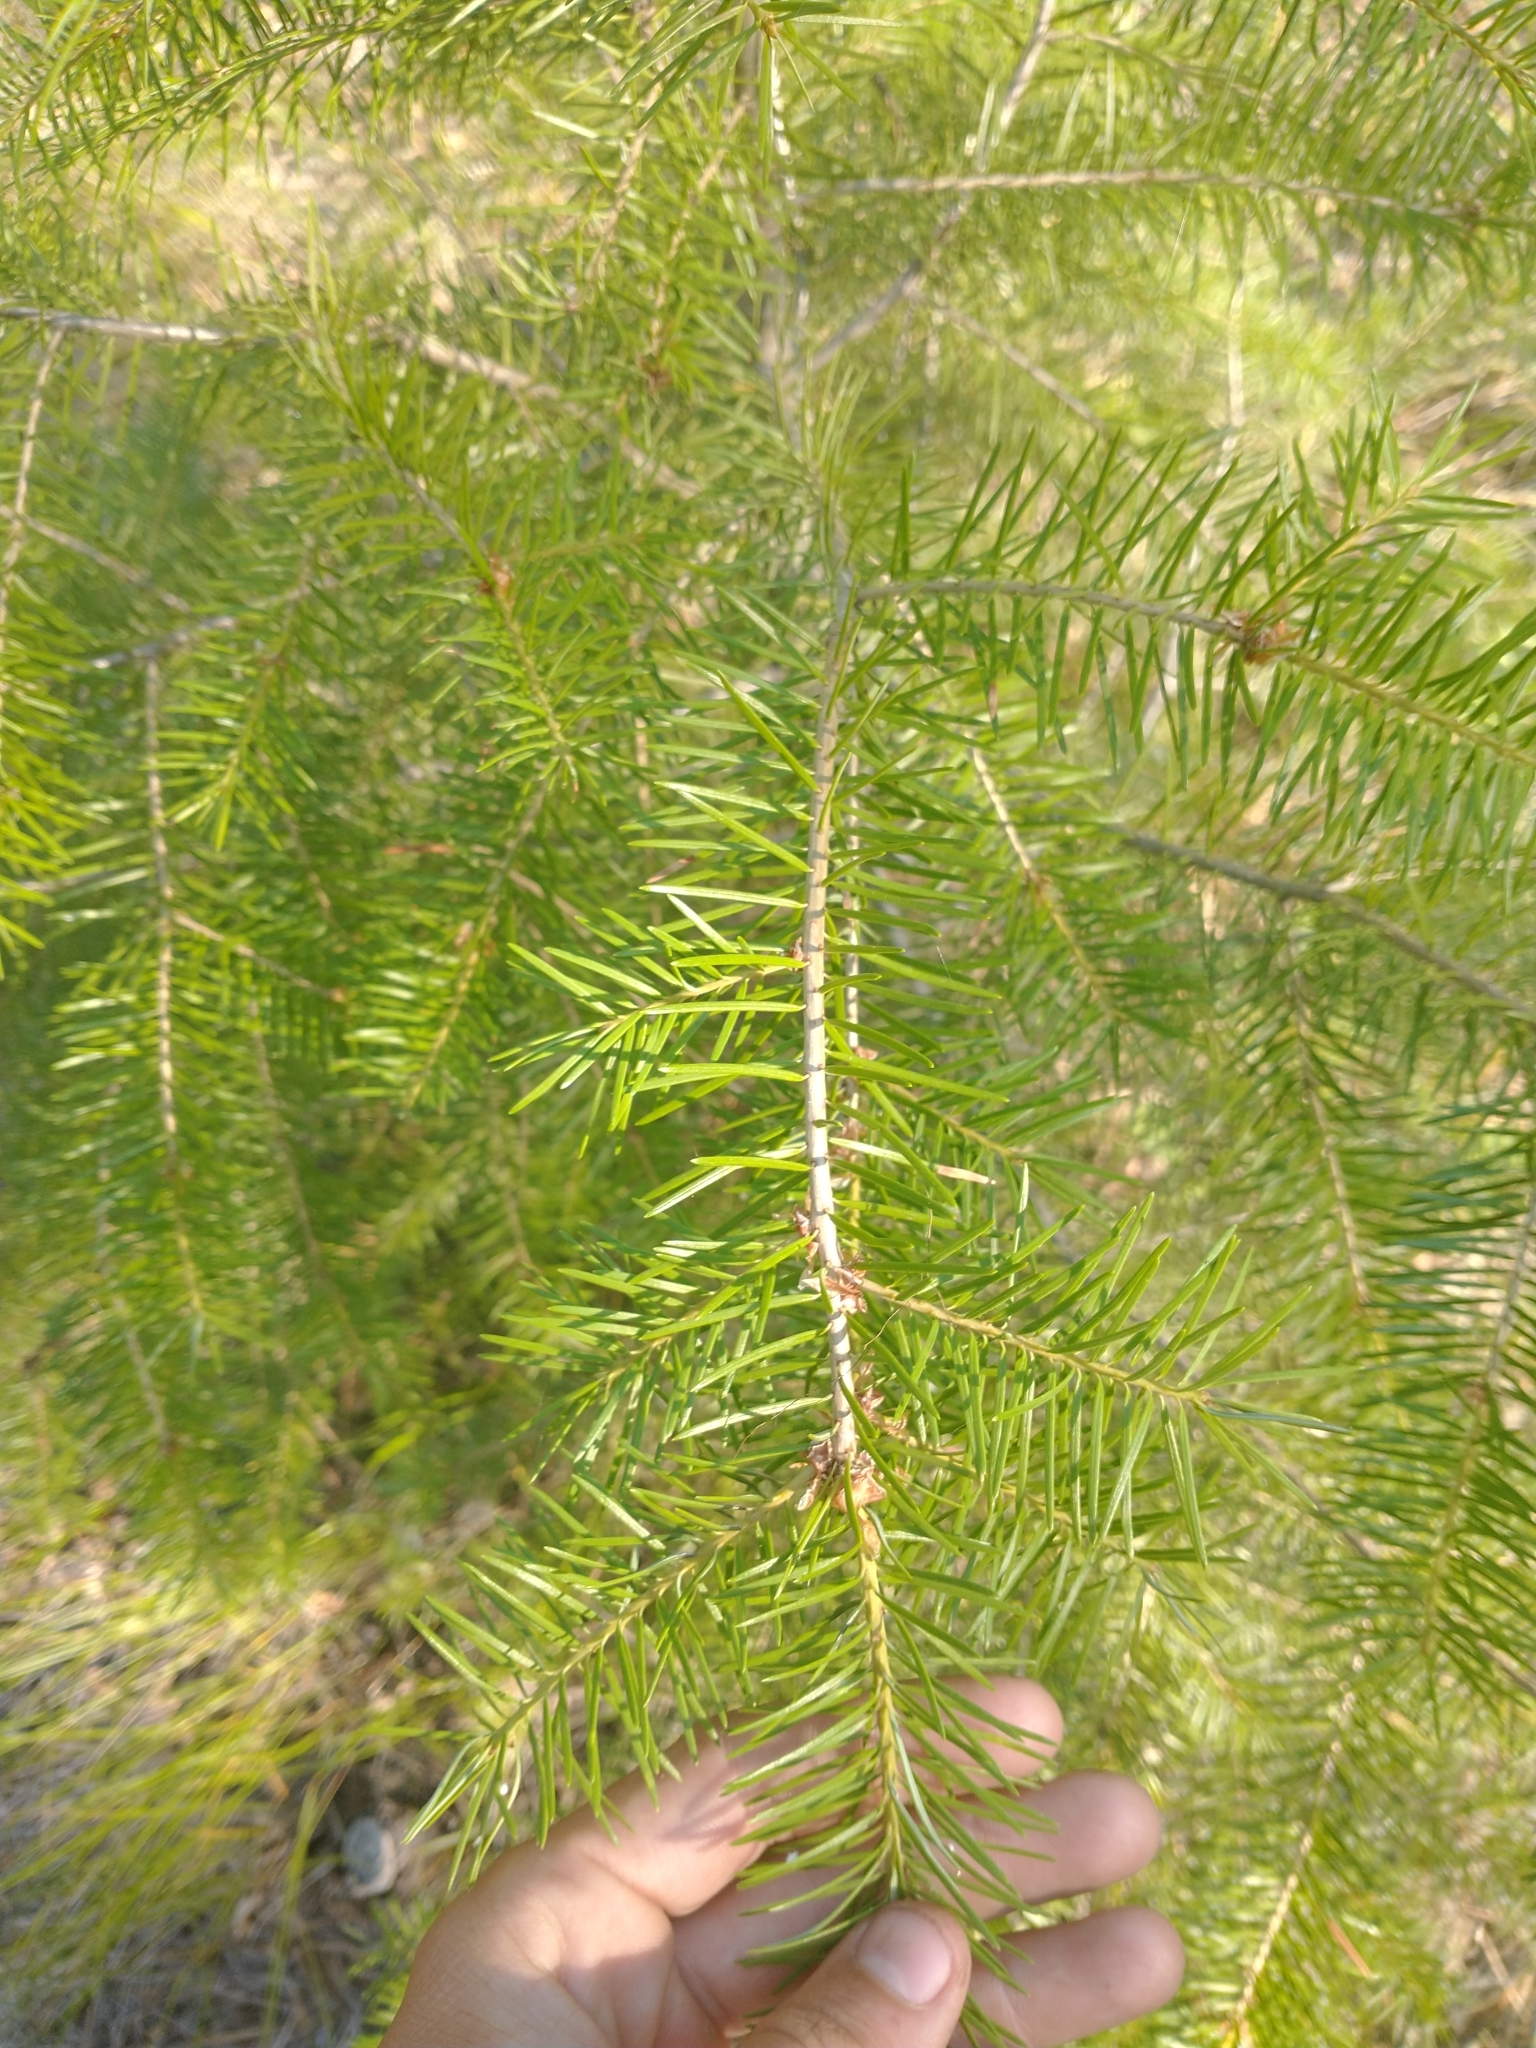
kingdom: Plantae
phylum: Tracheophyta
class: Pinopsida
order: Pinales
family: Pinaceae
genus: Pseudotsuga
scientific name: Pseudotsuga menziesii
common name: Douglas fir
